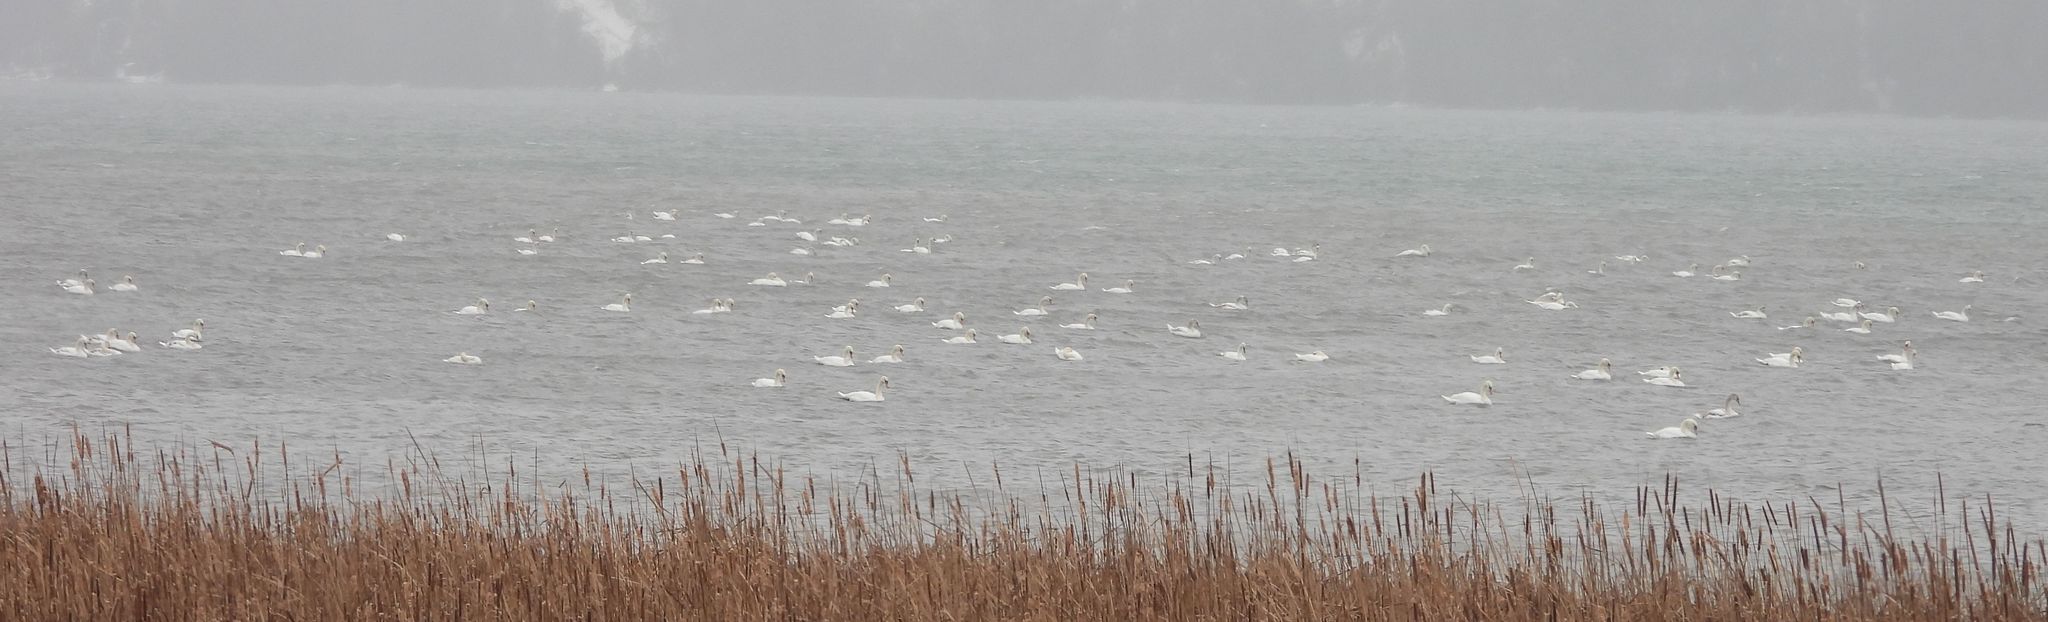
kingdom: Animalia
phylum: Chordata
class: Aves
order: Anseriformes
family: Anatidae
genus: Cygnus
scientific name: Cygnus olor
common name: Mute swan
